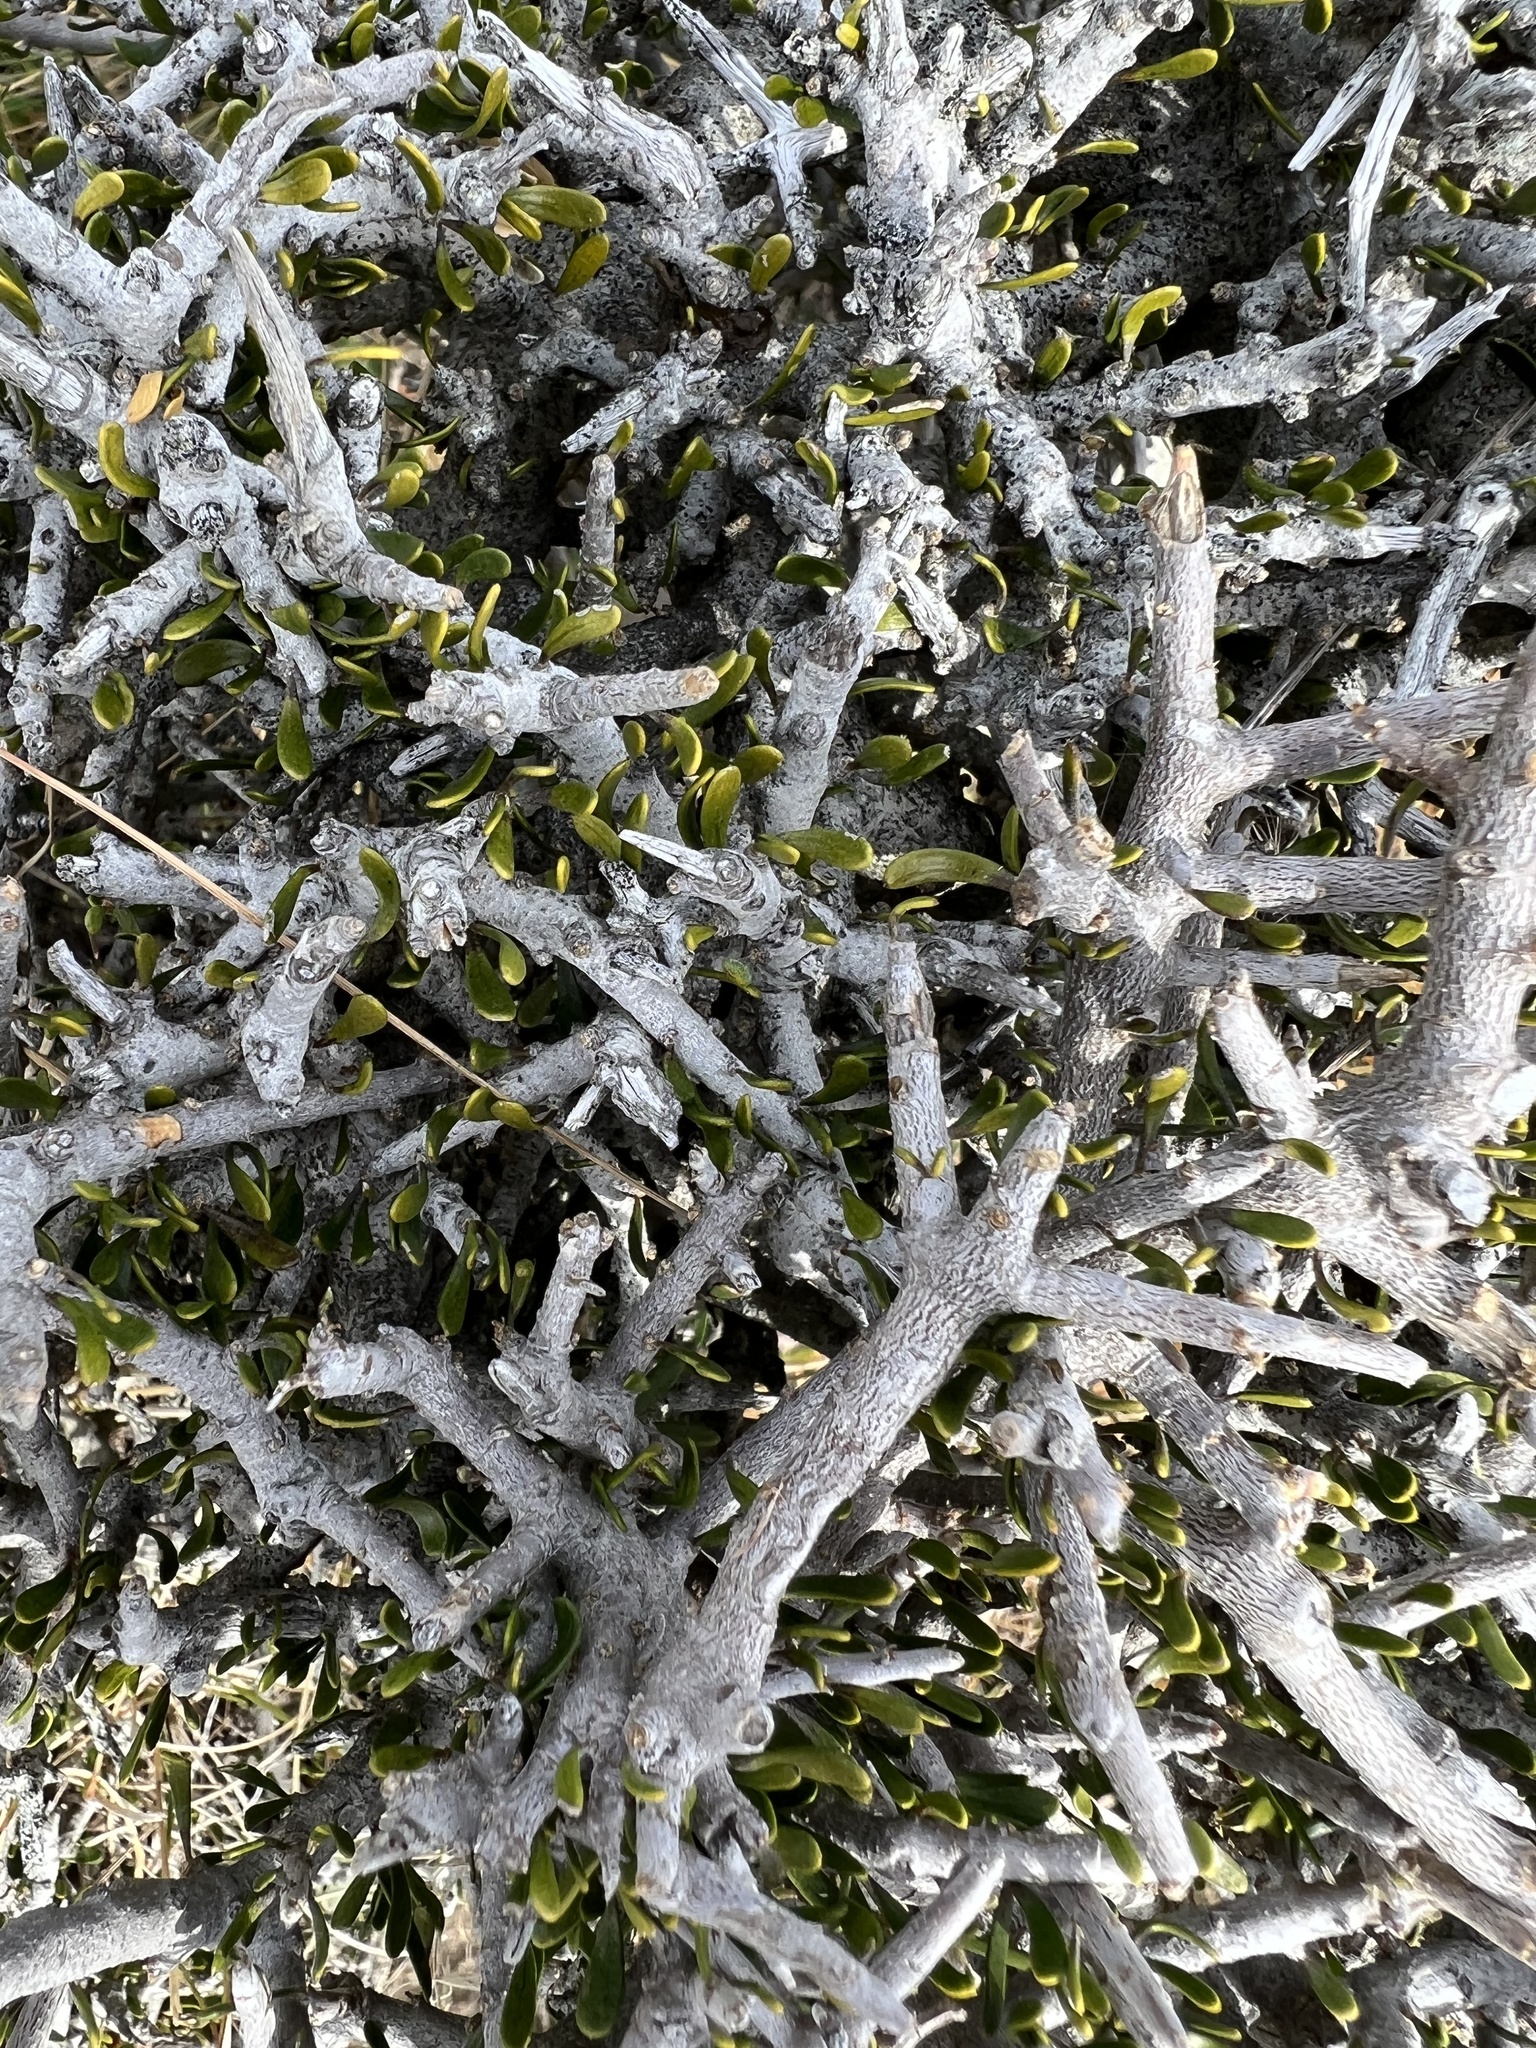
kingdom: Plantae
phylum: Tracheophyta
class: Magnoliopsida
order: Malpighiales
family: Violaceae
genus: Melicytus
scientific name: Melicytus alpinus
